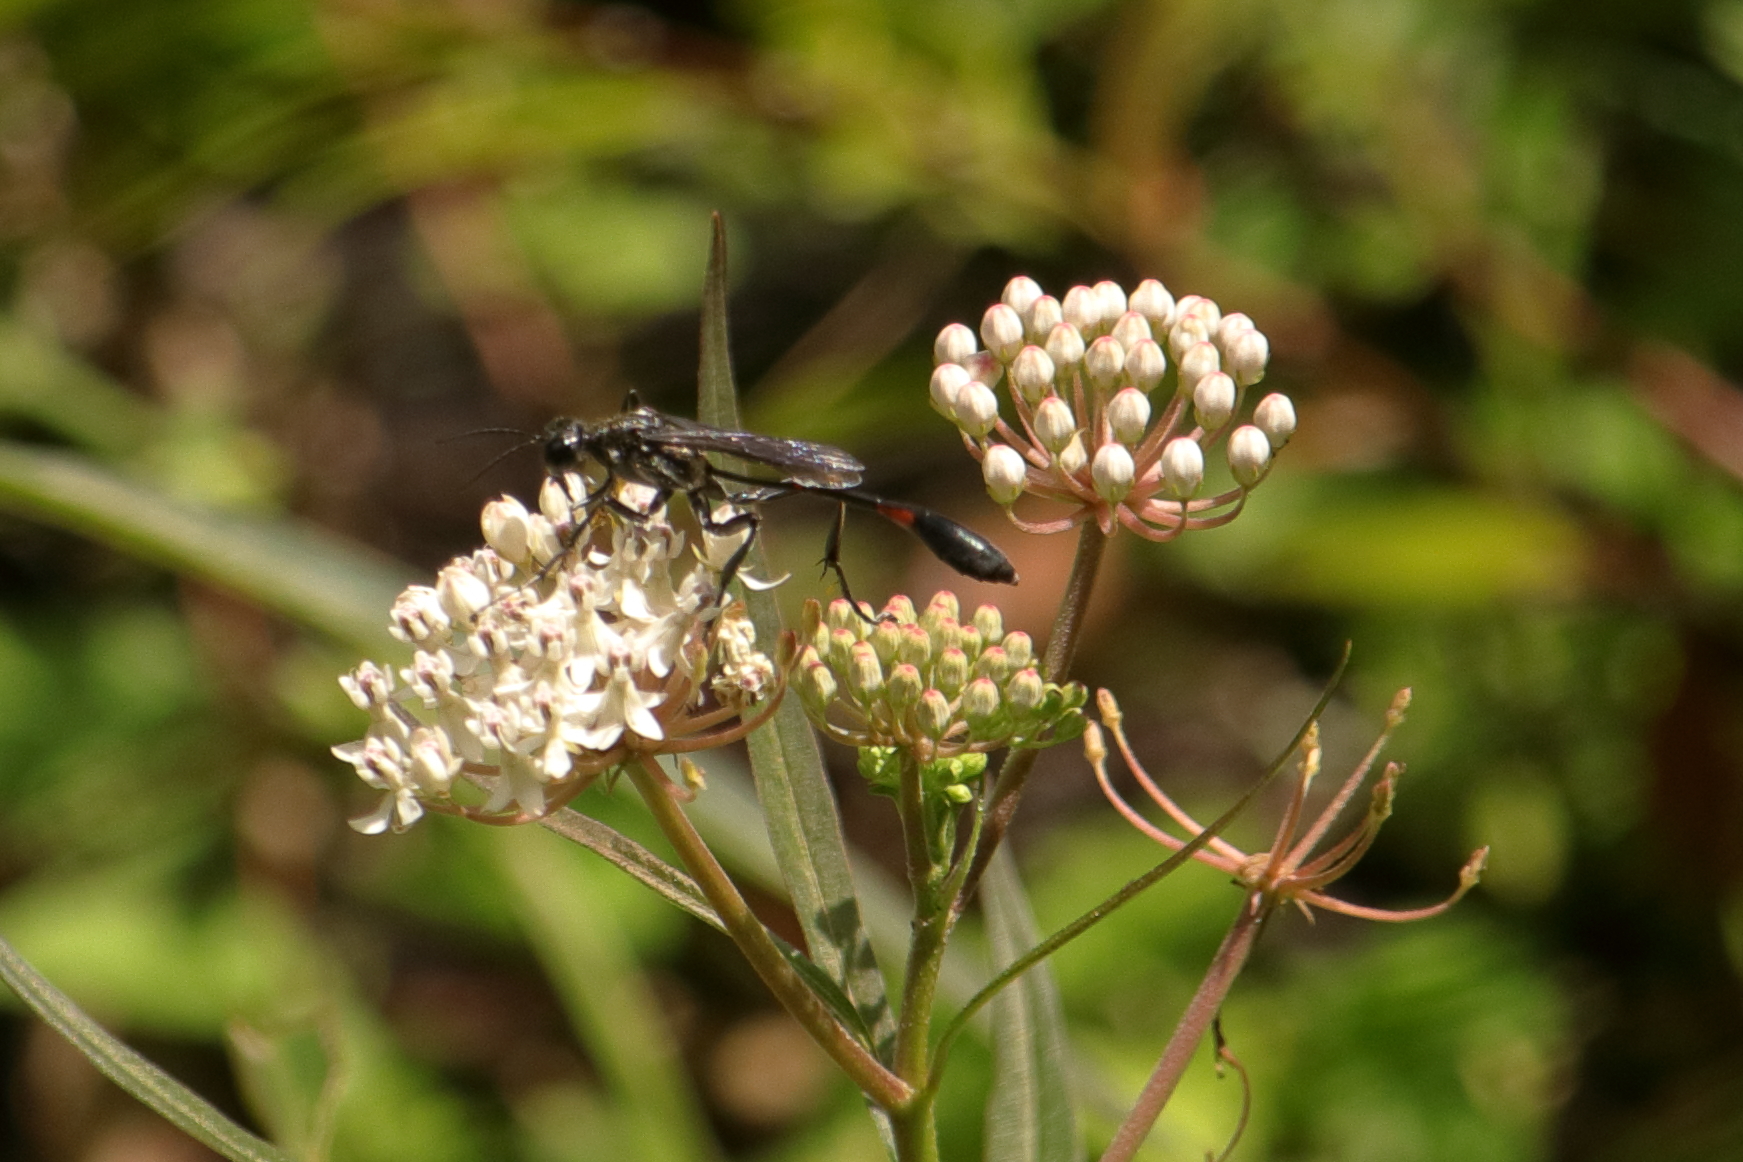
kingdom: Animalia
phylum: Arthropoda
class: Insecta
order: Hymenoptera
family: Sphecidae
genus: Ammophila
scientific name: Ammophila procera
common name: Common thread-waisted wasp
